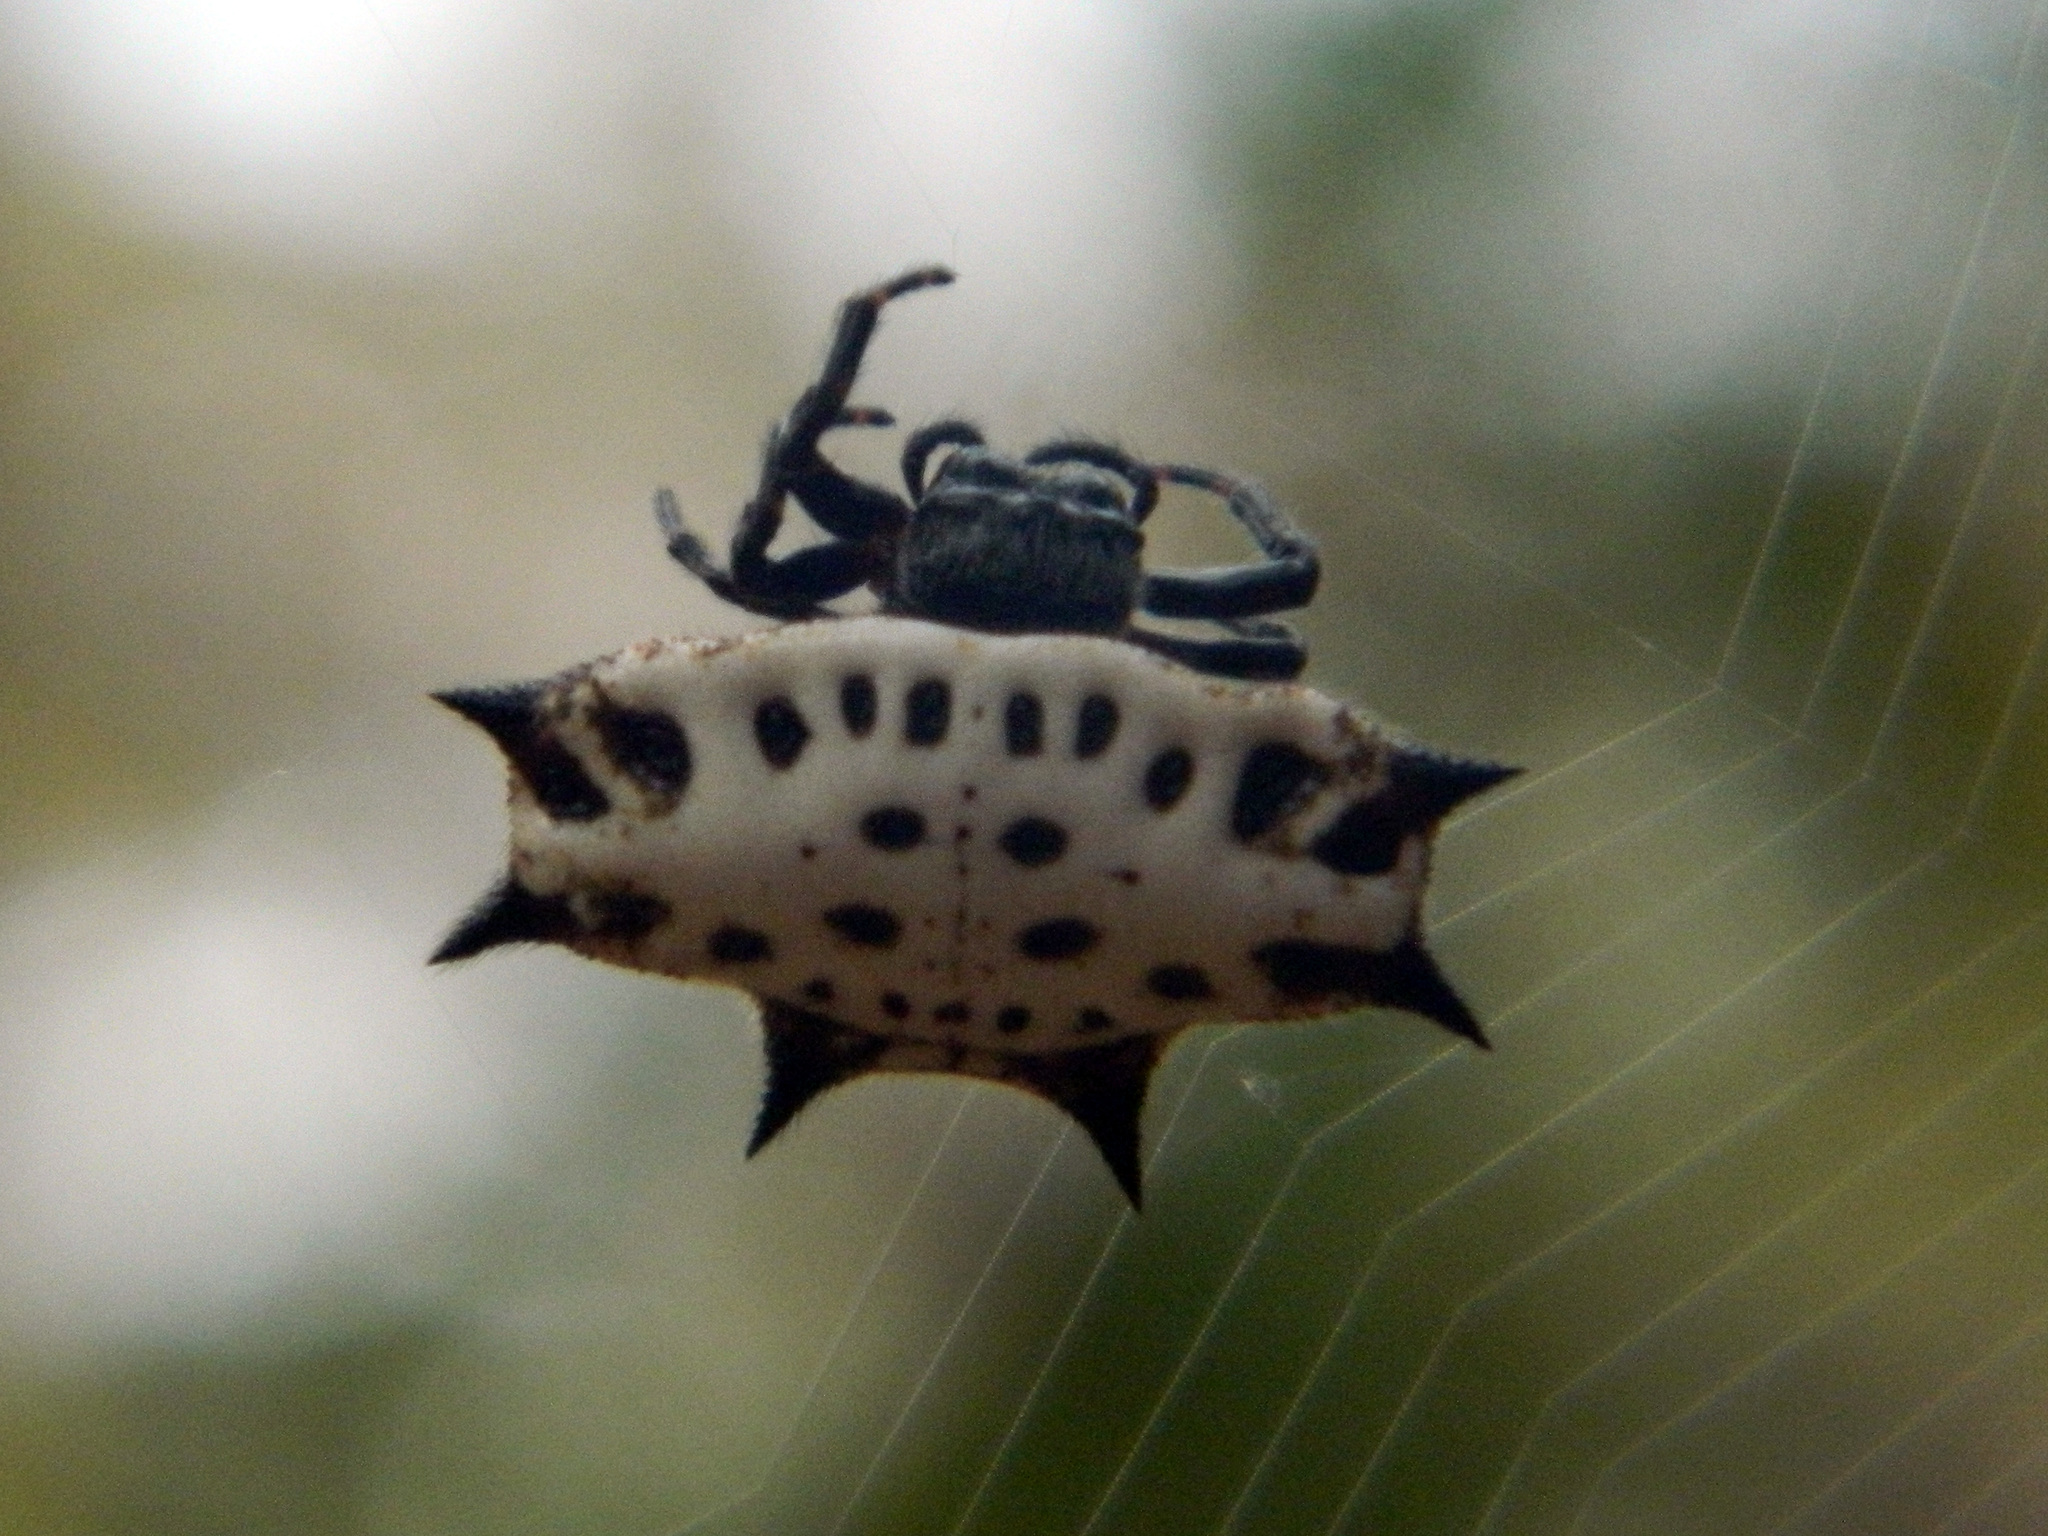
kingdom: Animalia
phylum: Arthropoda
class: Arachnida
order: Araneae
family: Araneidae
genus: Gasteracantha
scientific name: Gasteracantha cancriformis
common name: Orb weavers
